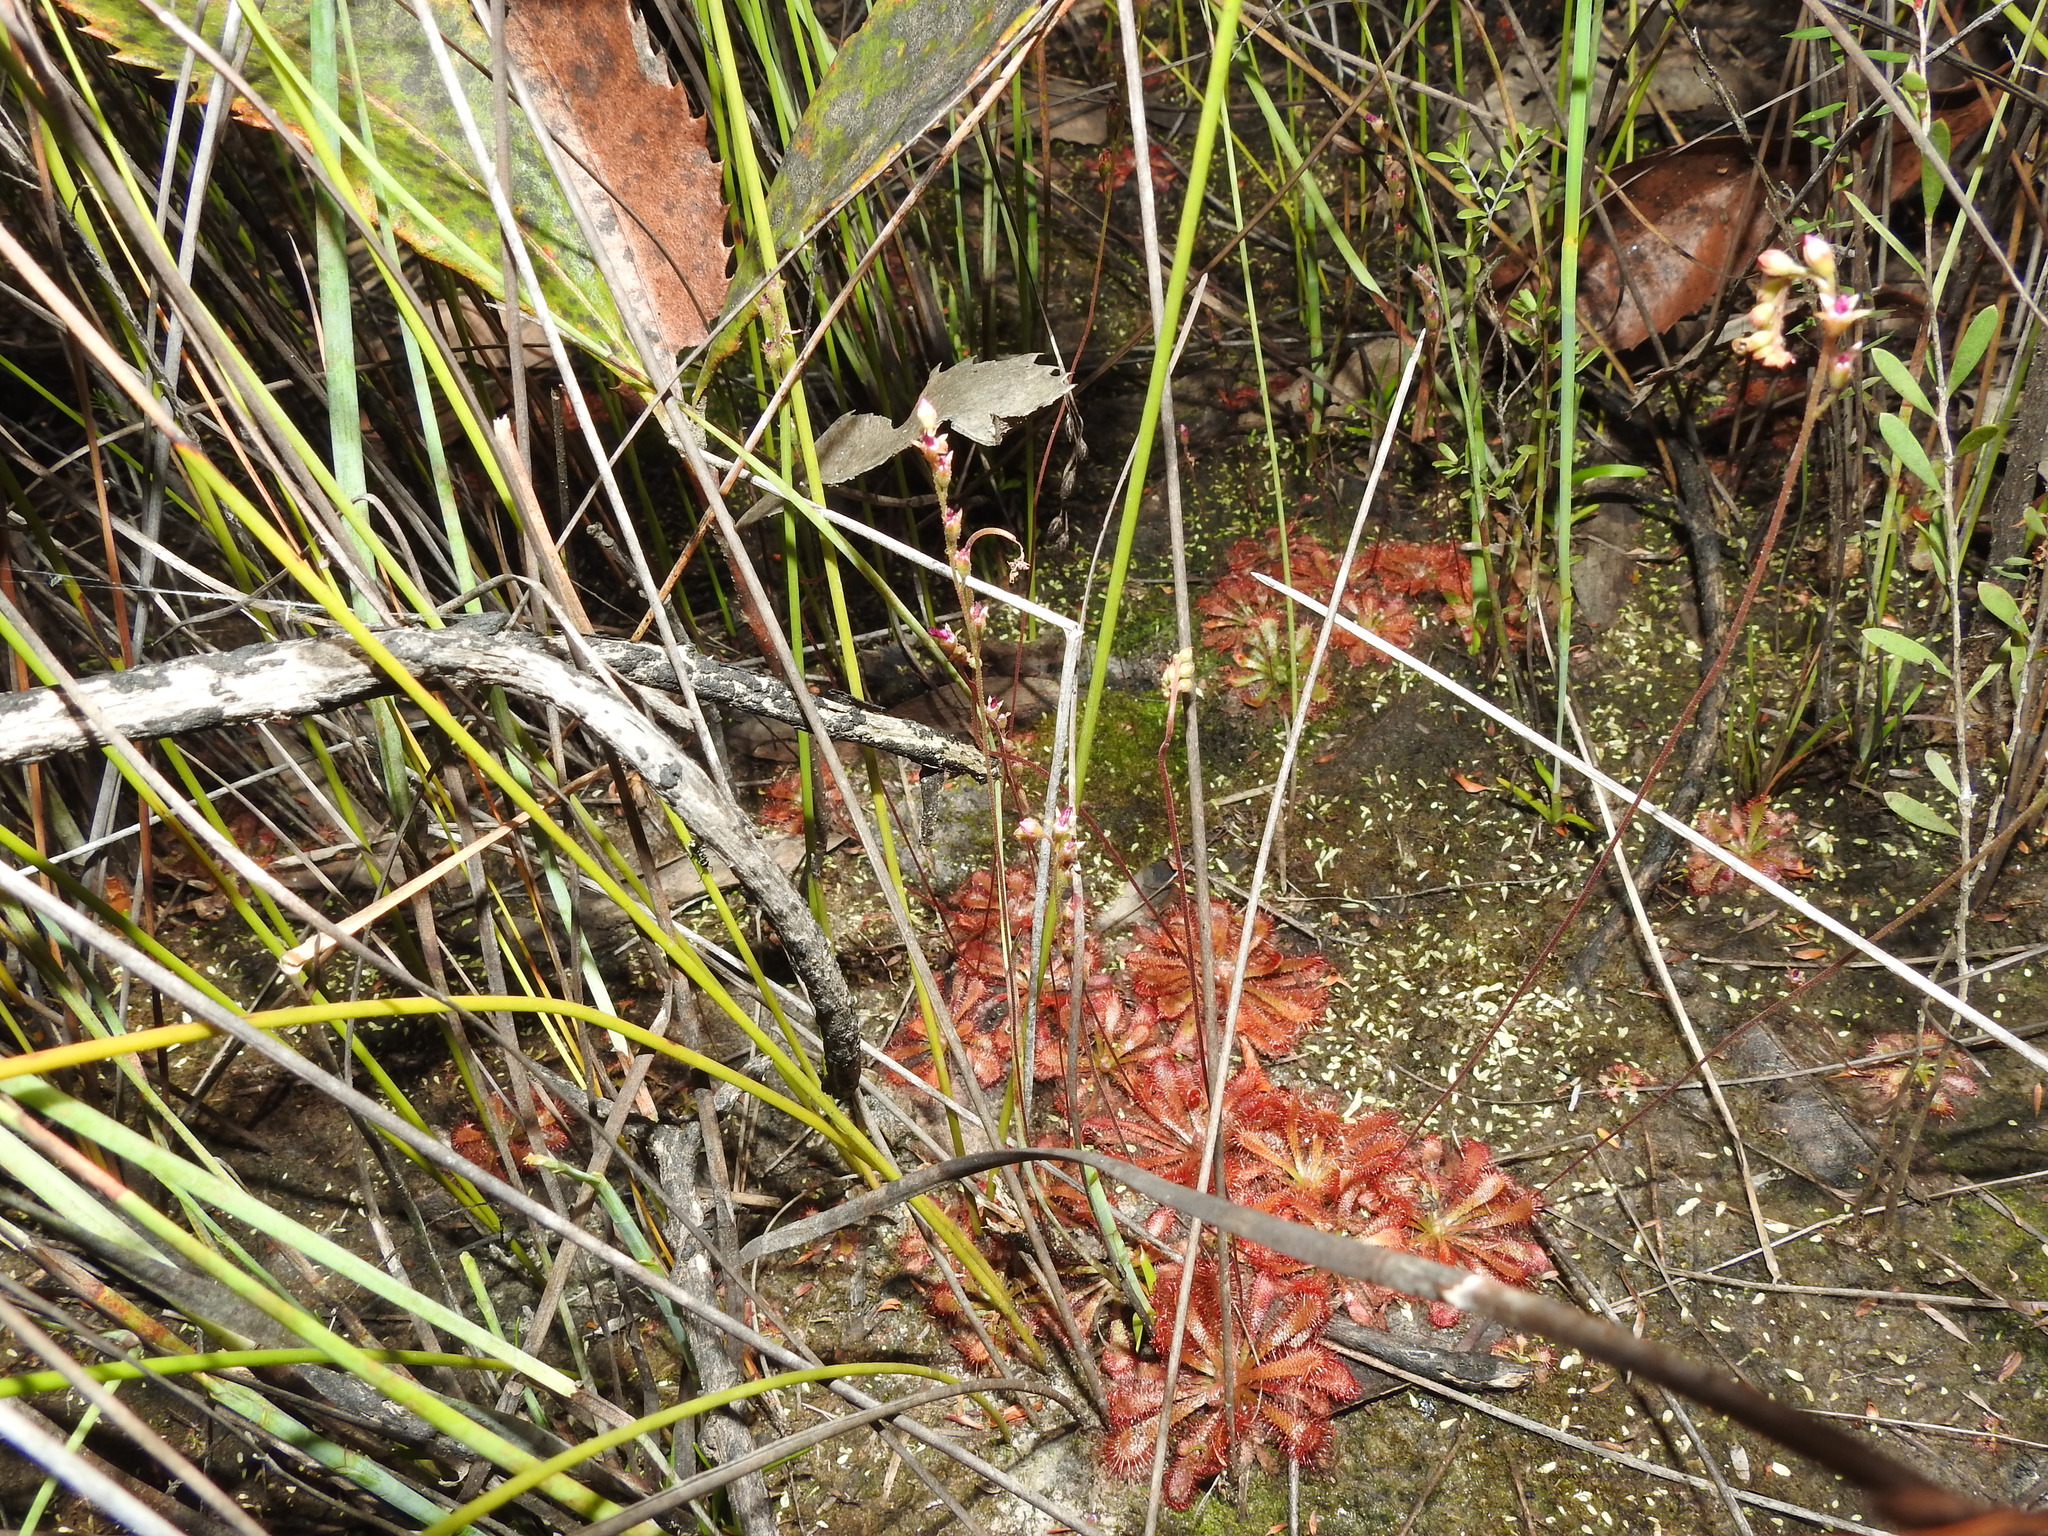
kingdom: Plantae
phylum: Tracheophyta
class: Magnoliopsida
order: Caryophyllales
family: Droseraceae
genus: Drosera
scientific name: Drosera spatulata
